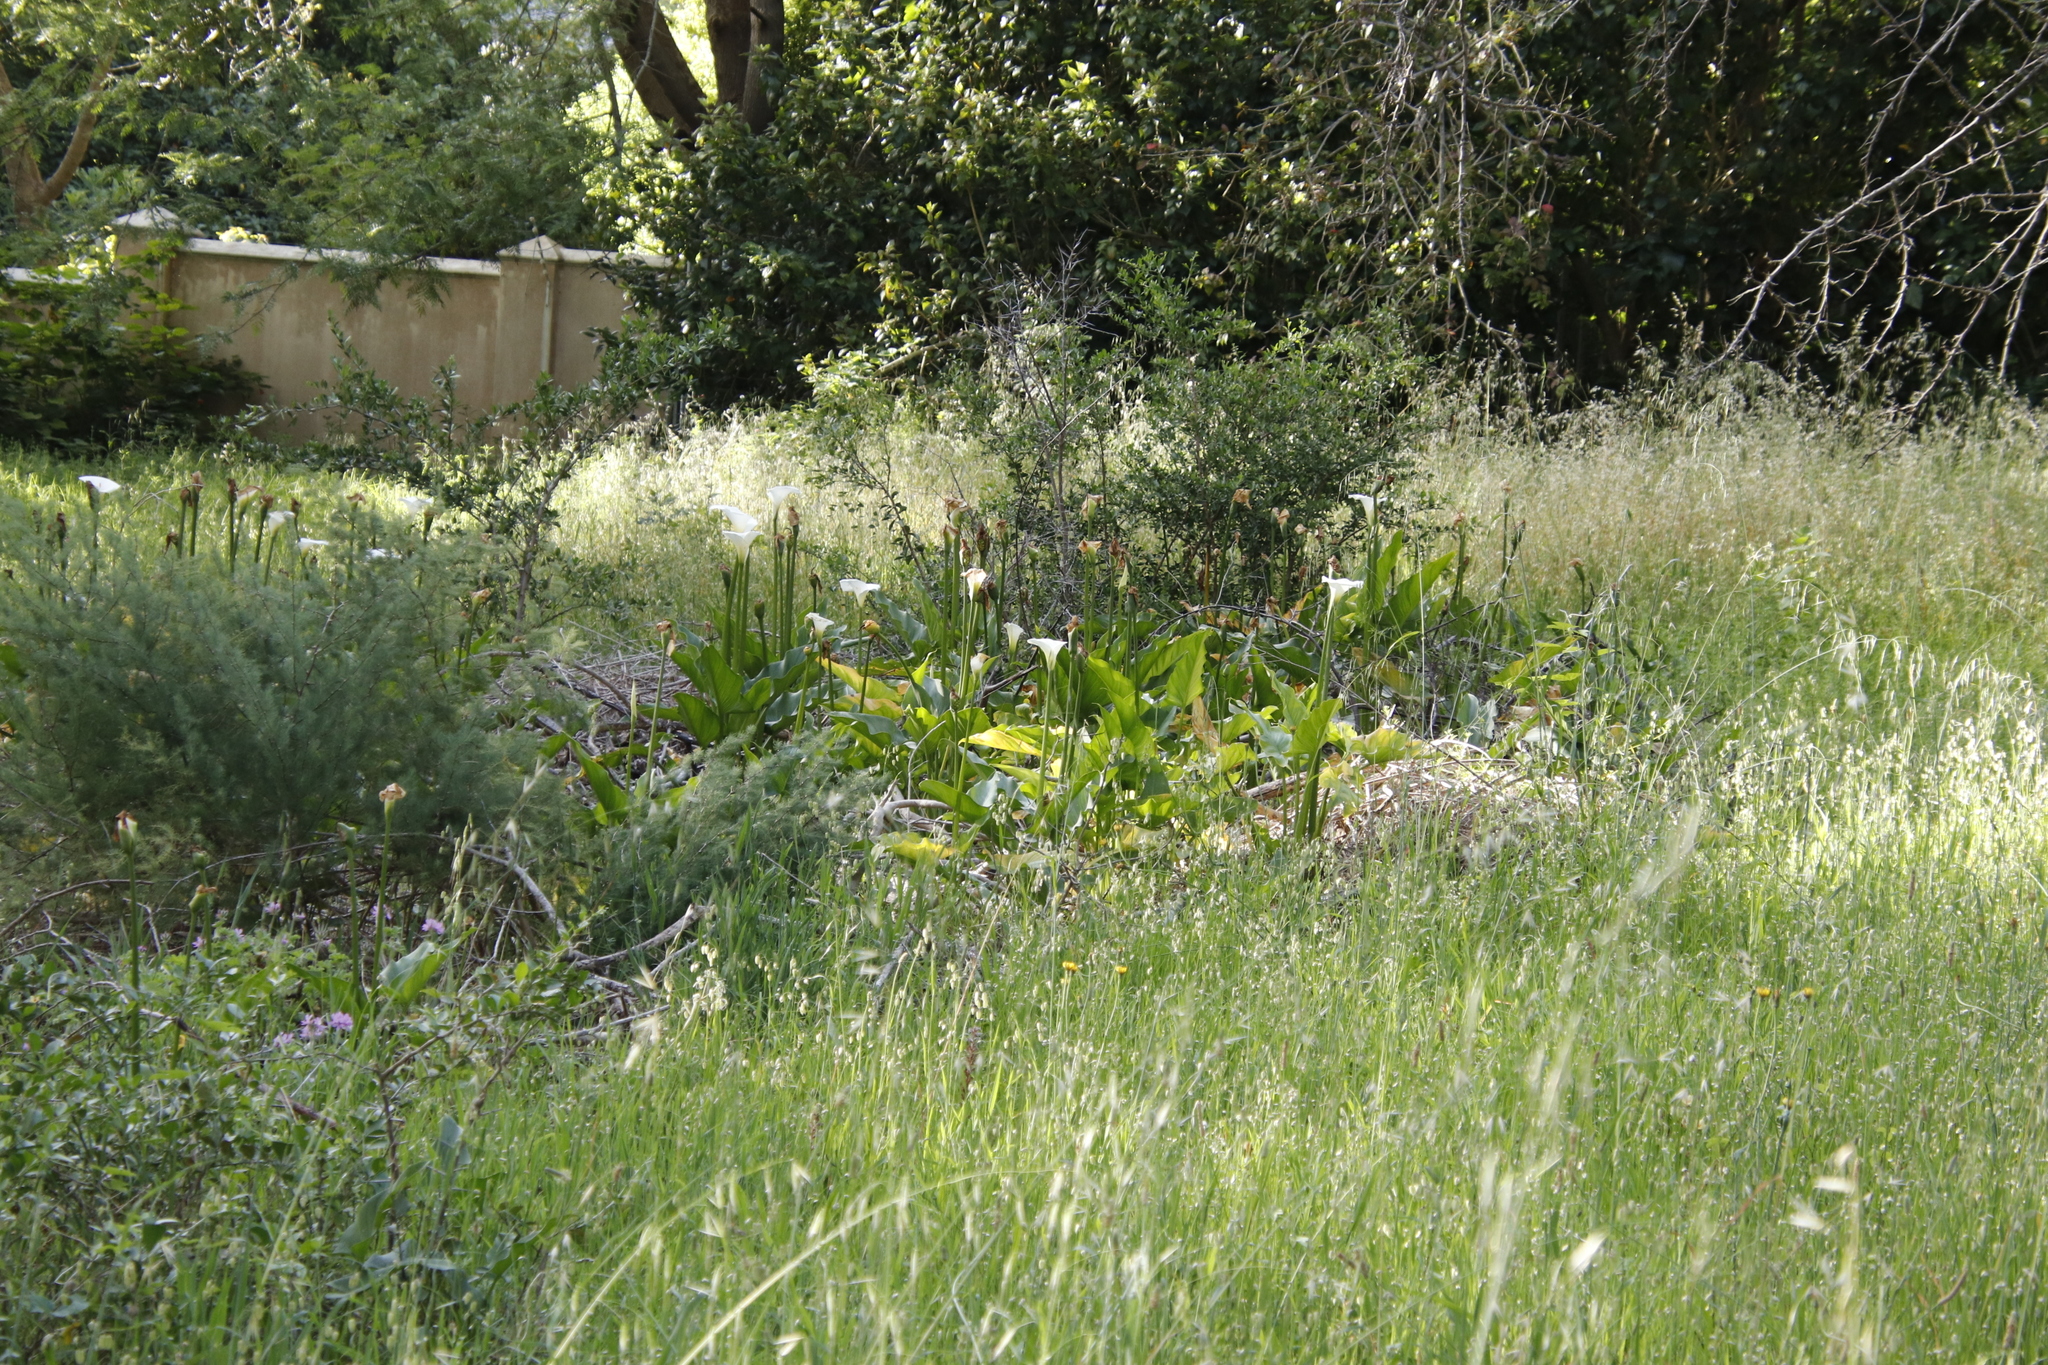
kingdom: Plantae
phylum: Tracheophyta
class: Liliopsida
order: Alismatales
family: Araceae
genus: Zantedeschia
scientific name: Zantedeschia aethiopica
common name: Altar-lily
